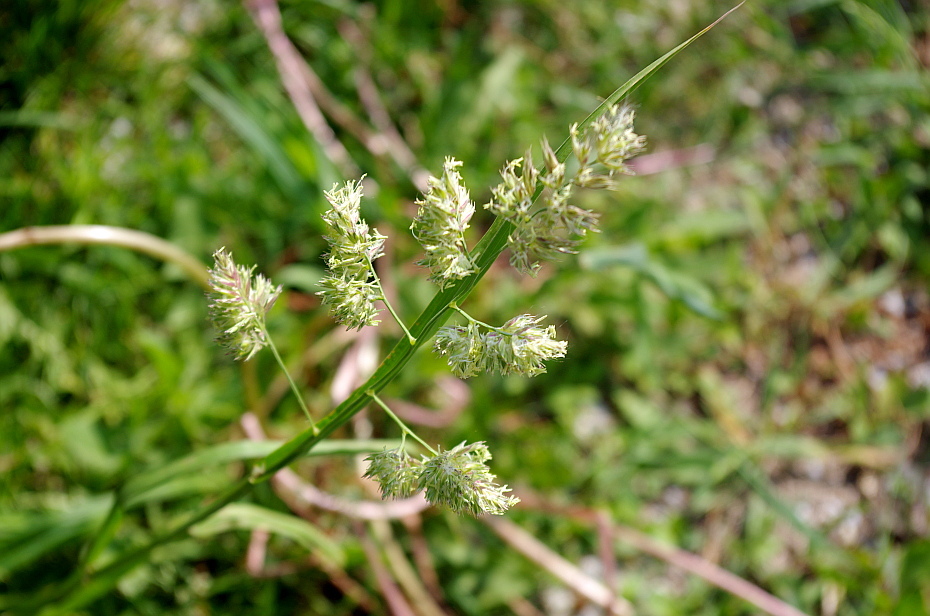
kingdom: Plantae
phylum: Tracheophyta
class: Liliopsida
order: Poales
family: Poaceae
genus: Dactylis
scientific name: Dactylis glomerata
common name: Orchardgrass
